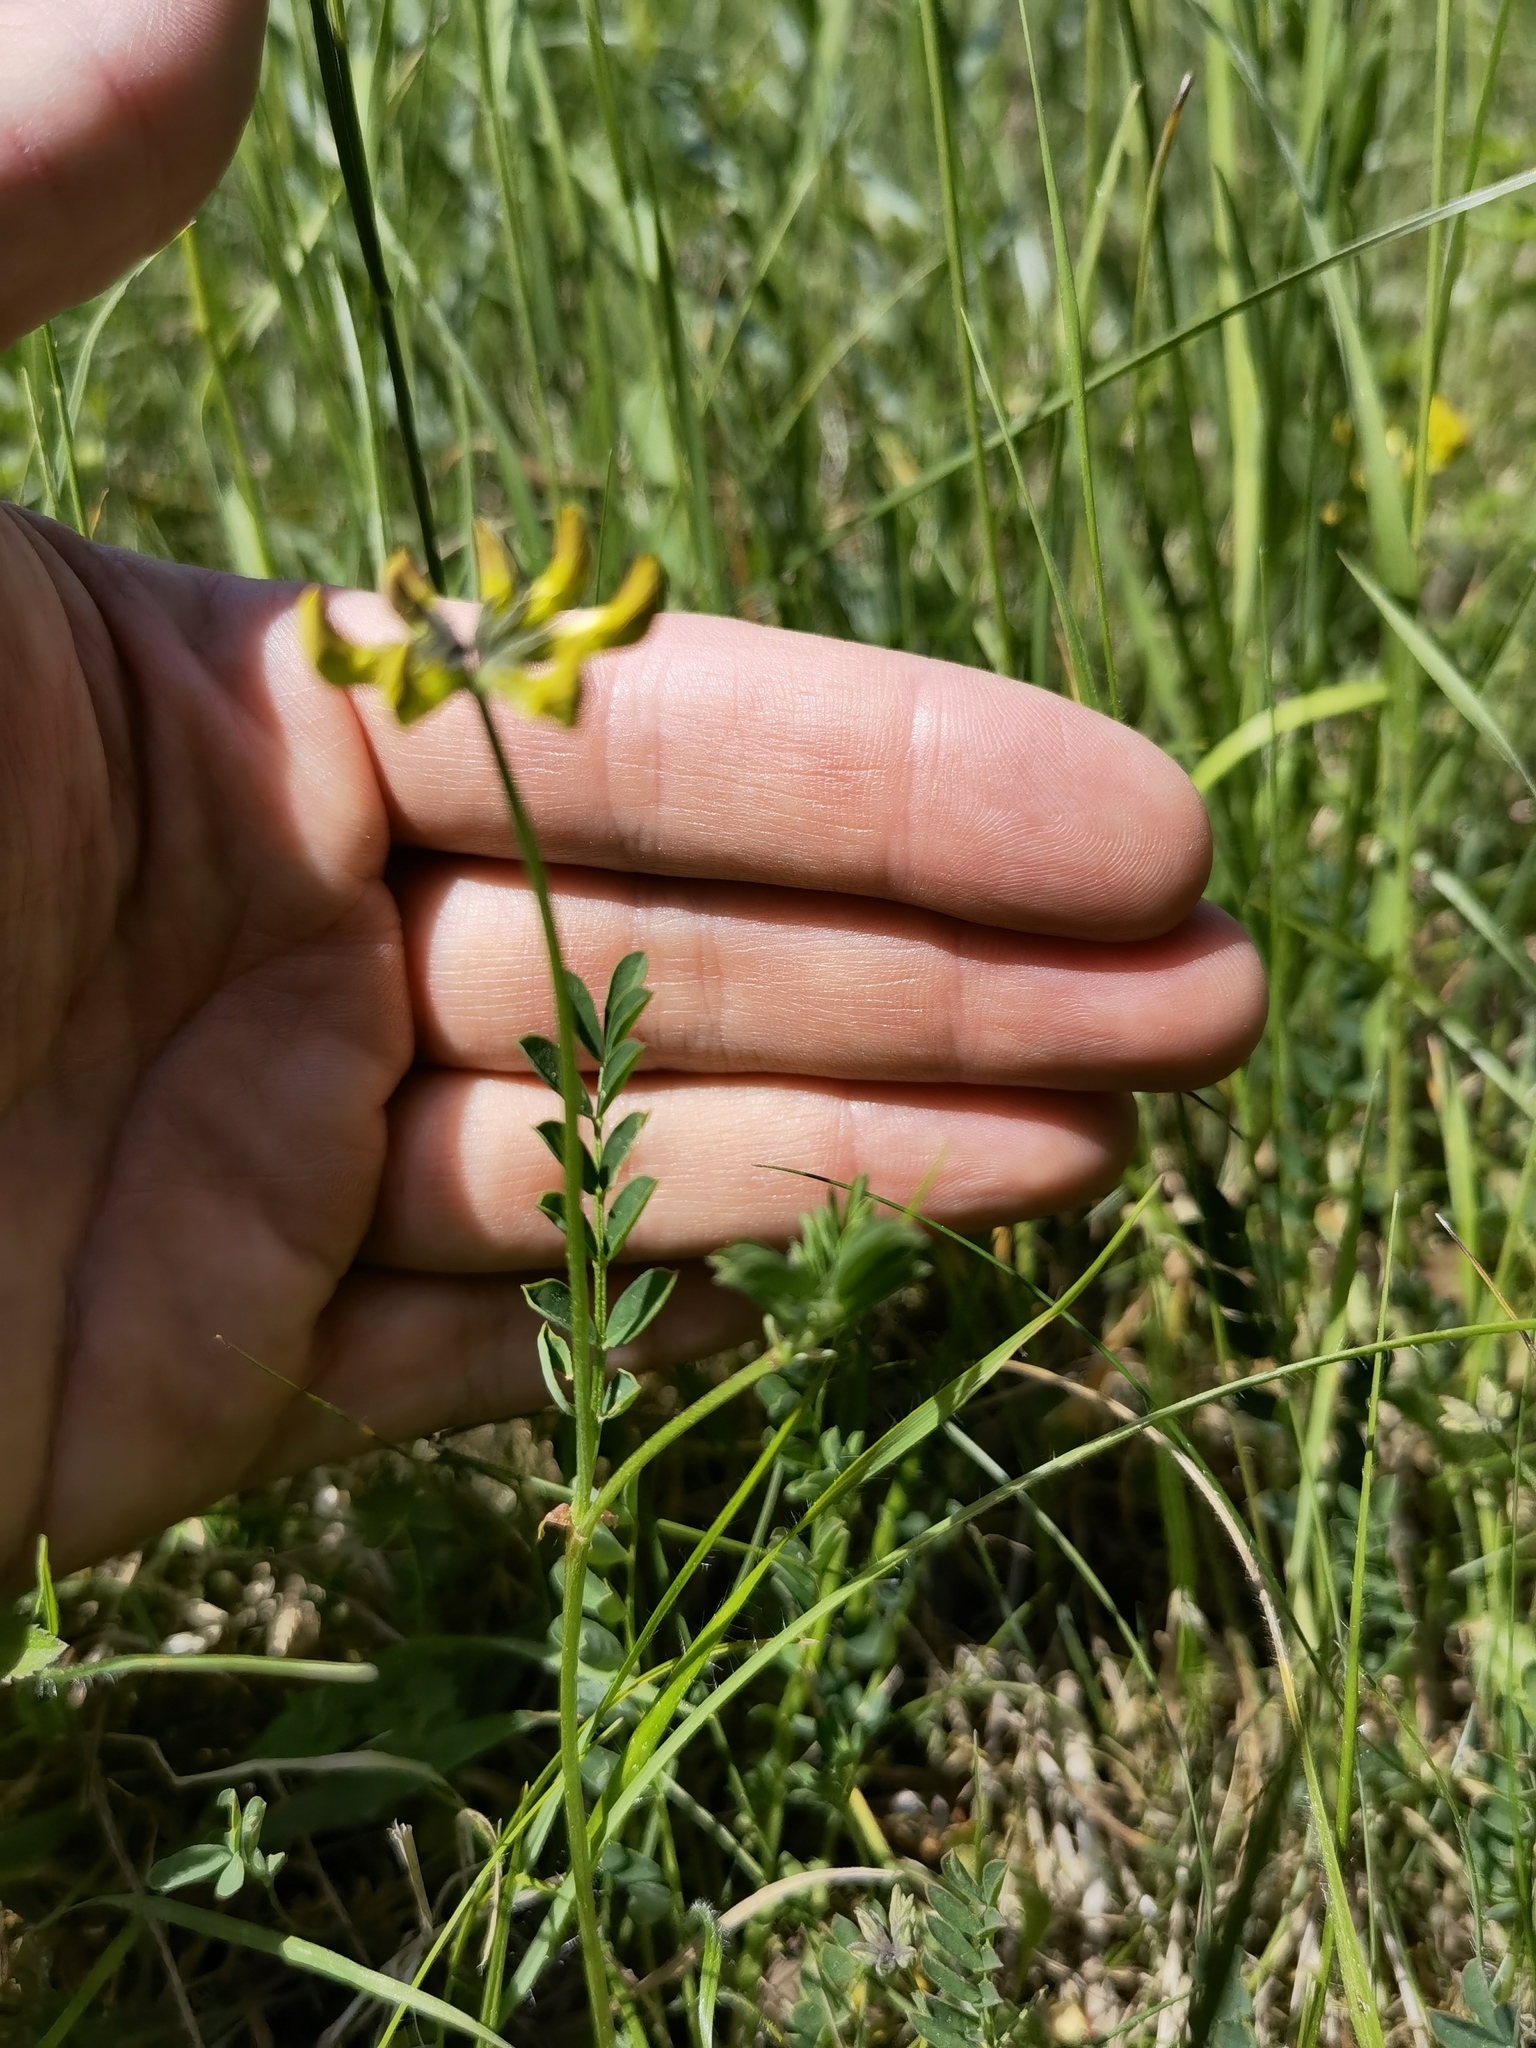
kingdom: Plantae
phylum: Tracheophyta
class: Magnoliopsida
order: Fabales
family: Fabaceae
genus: Hippocrepis
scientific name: Hippocrepis comosa
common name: Horseshoe vetch
